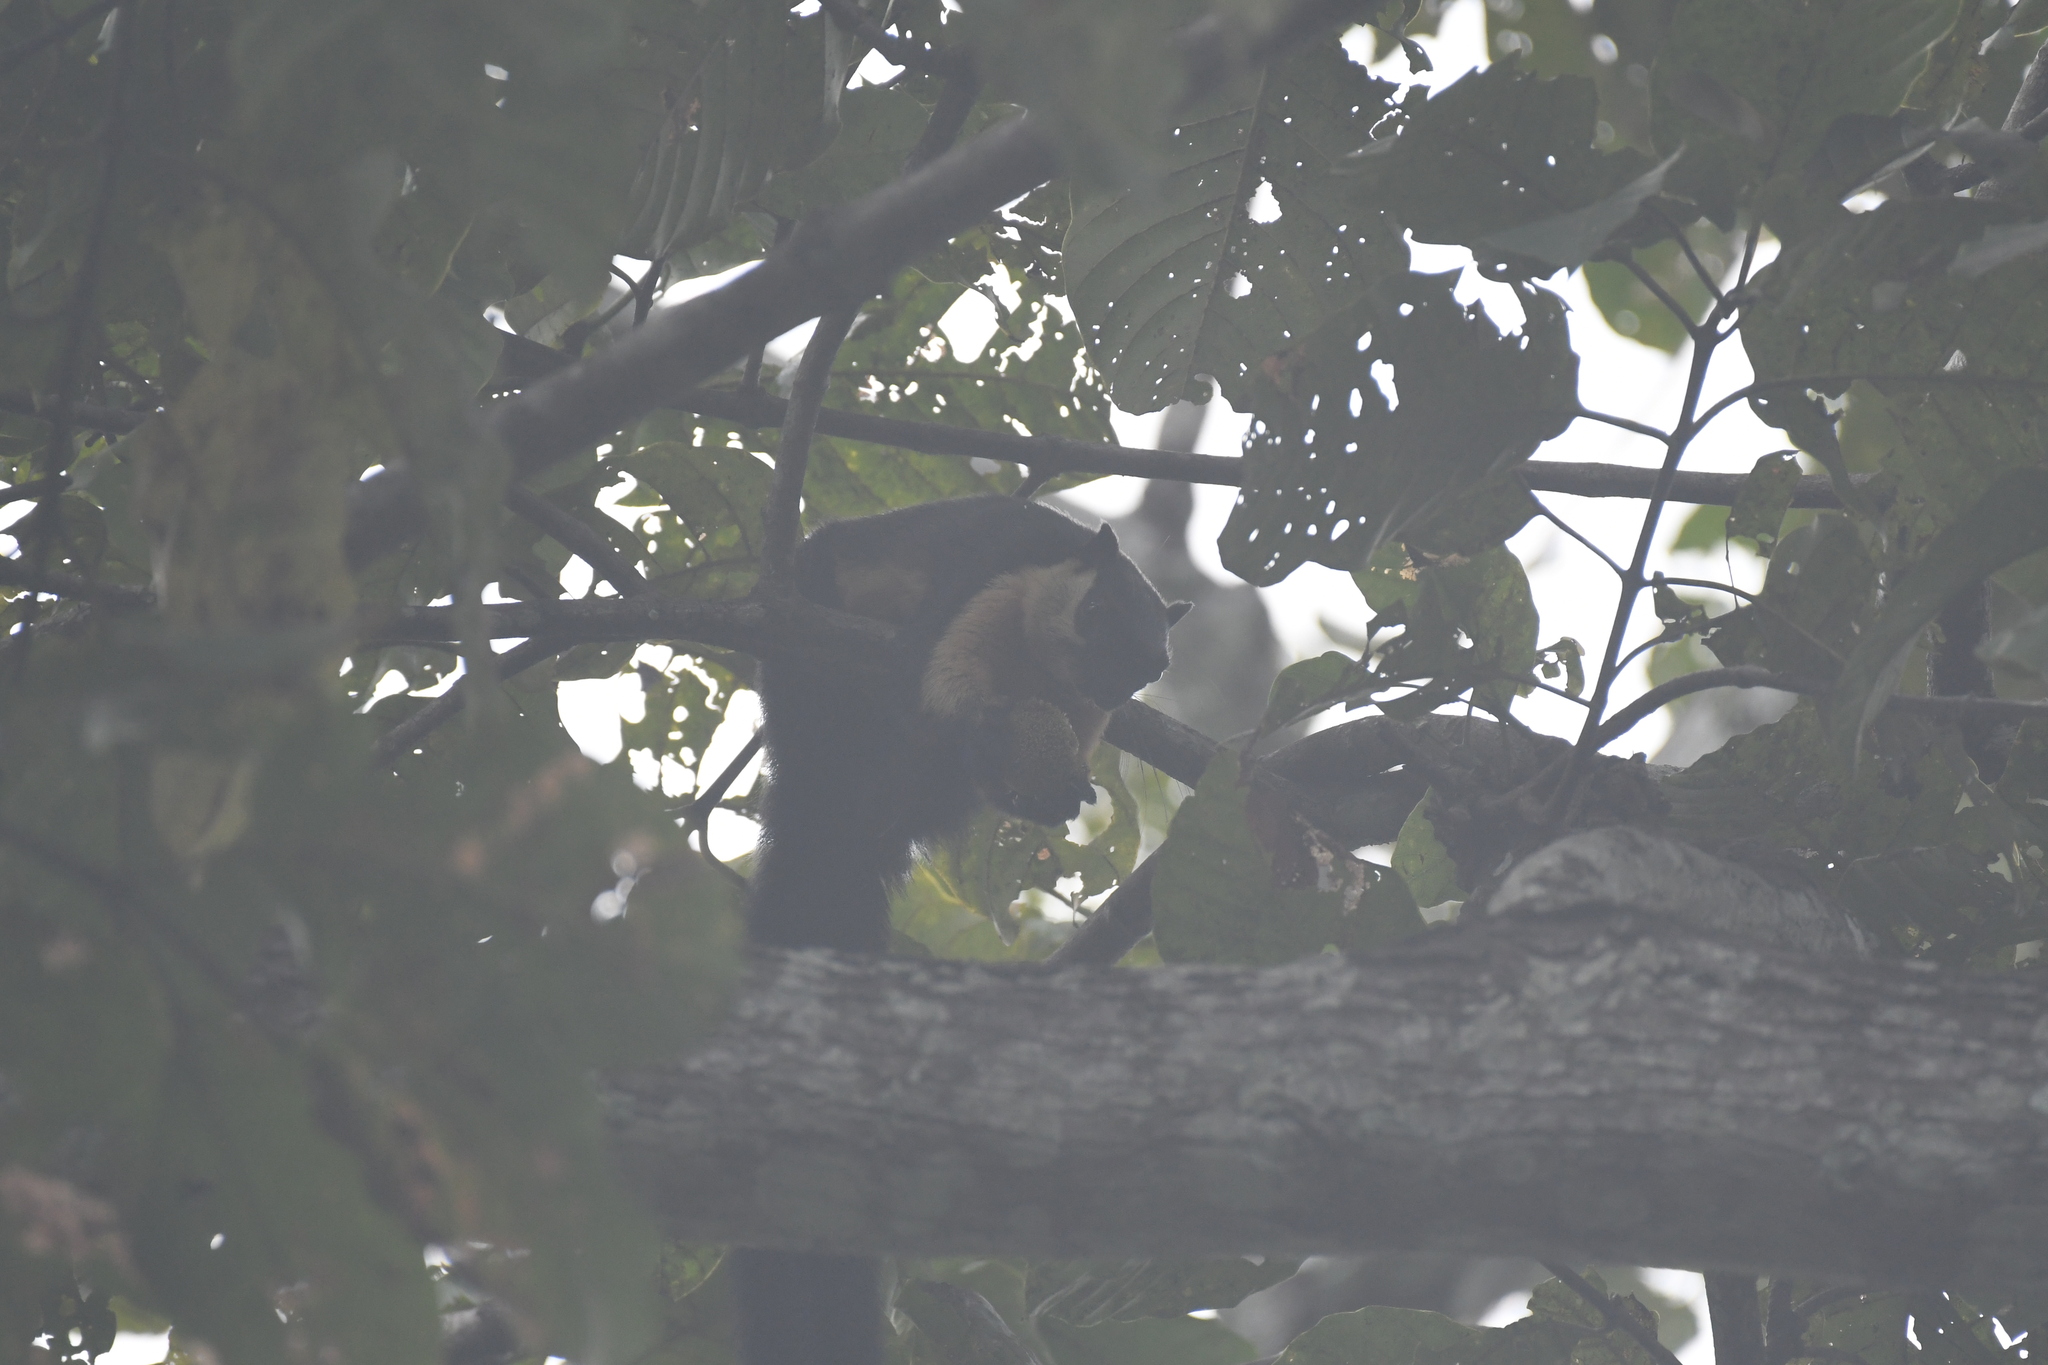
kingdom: Animalia
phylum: Chordata
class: Mammalia
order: Rodentia
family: Sciuridae
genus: Ratufa
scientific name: Ratufa bicolor
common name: Black giant squirrel
